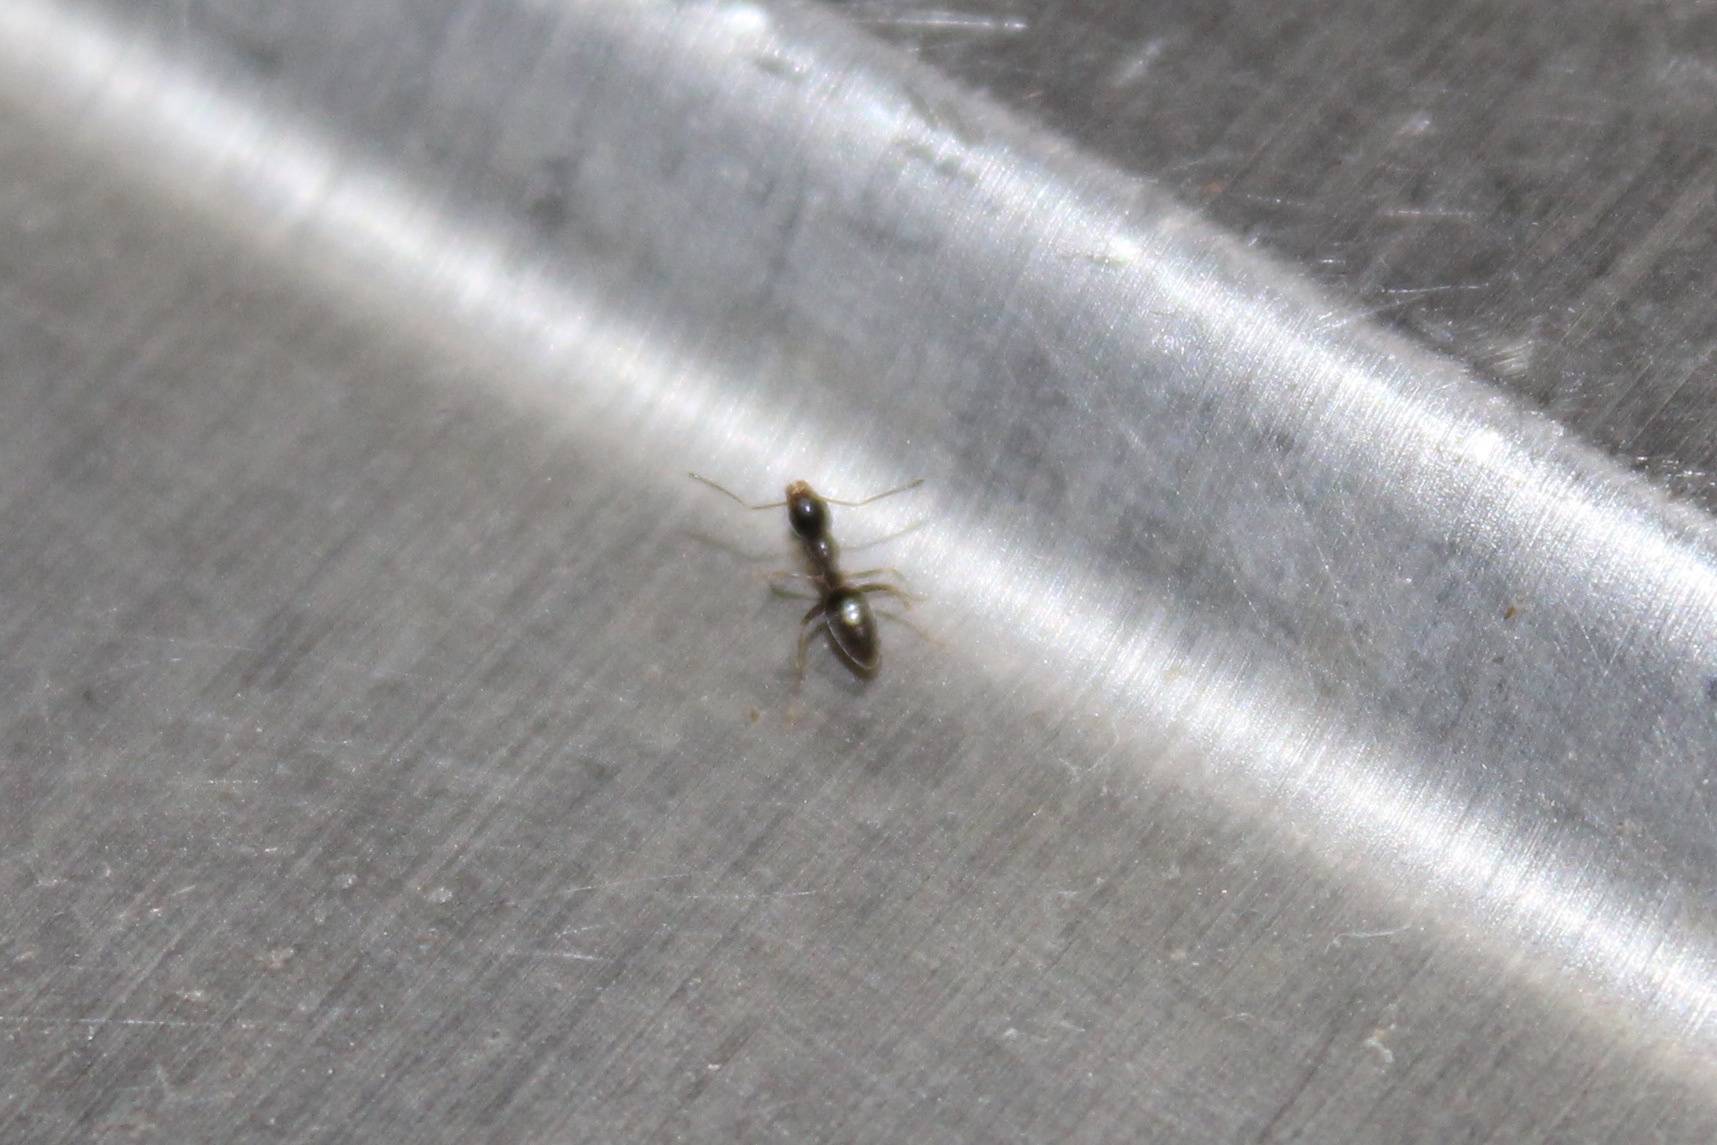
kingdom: Animalia
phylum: Arthropoda
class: Insecta
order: Hymenoptera
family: Formicidae
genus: Tapinoma
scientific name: Tapinoma sessile
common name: Odorous house ant
